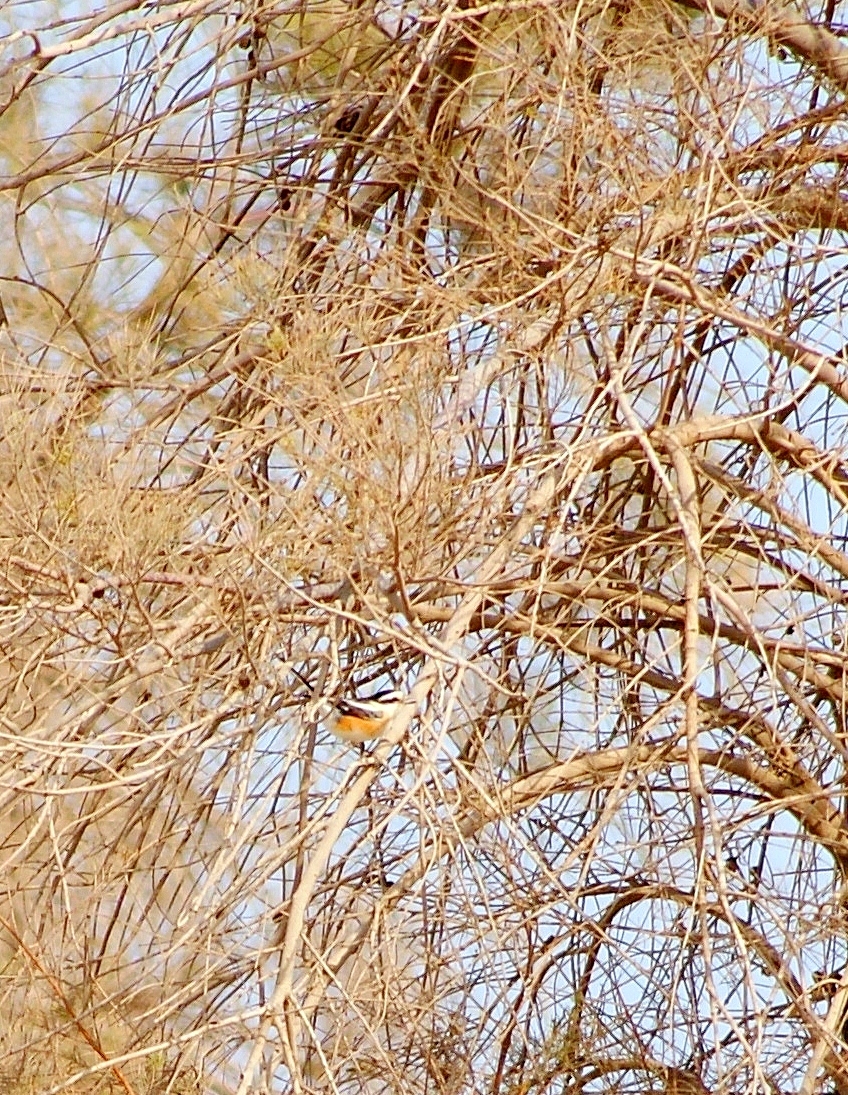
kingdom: Animalia
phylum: Chordata
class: Aves
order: Passeriformes
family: Laniidae
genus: Lanius
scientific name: Lanius nubicus
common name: Masked shrike
